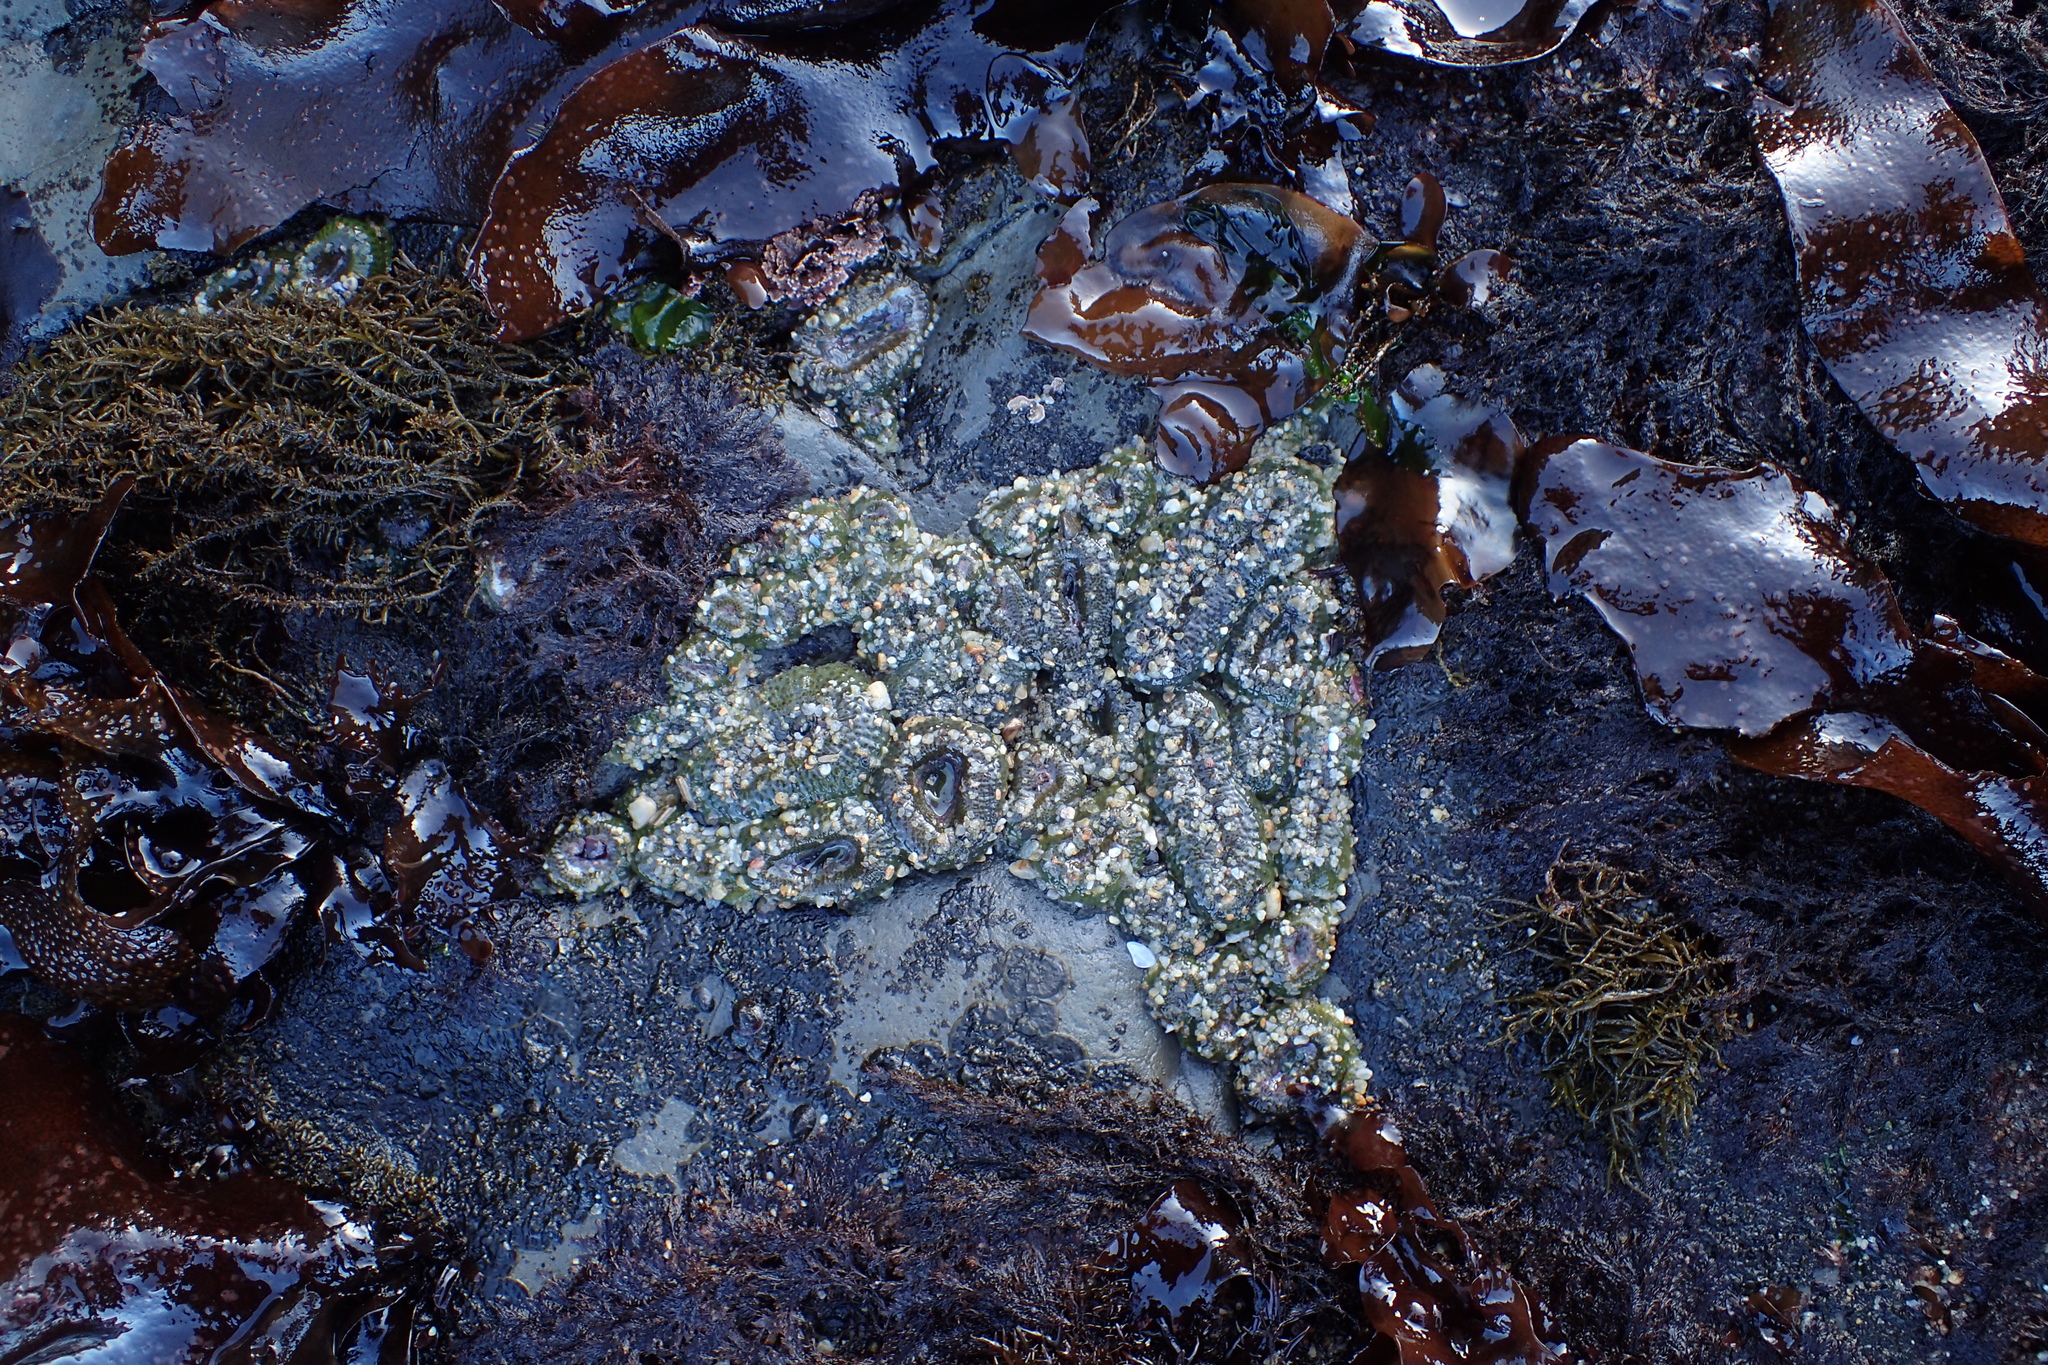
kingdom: Animalia
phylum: Cnidaria
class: Anthozoa
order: Actiniaria
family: Actiniidae
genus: Anthopleura
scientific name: Anthopleura elegantissima
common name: Clonal anemone
